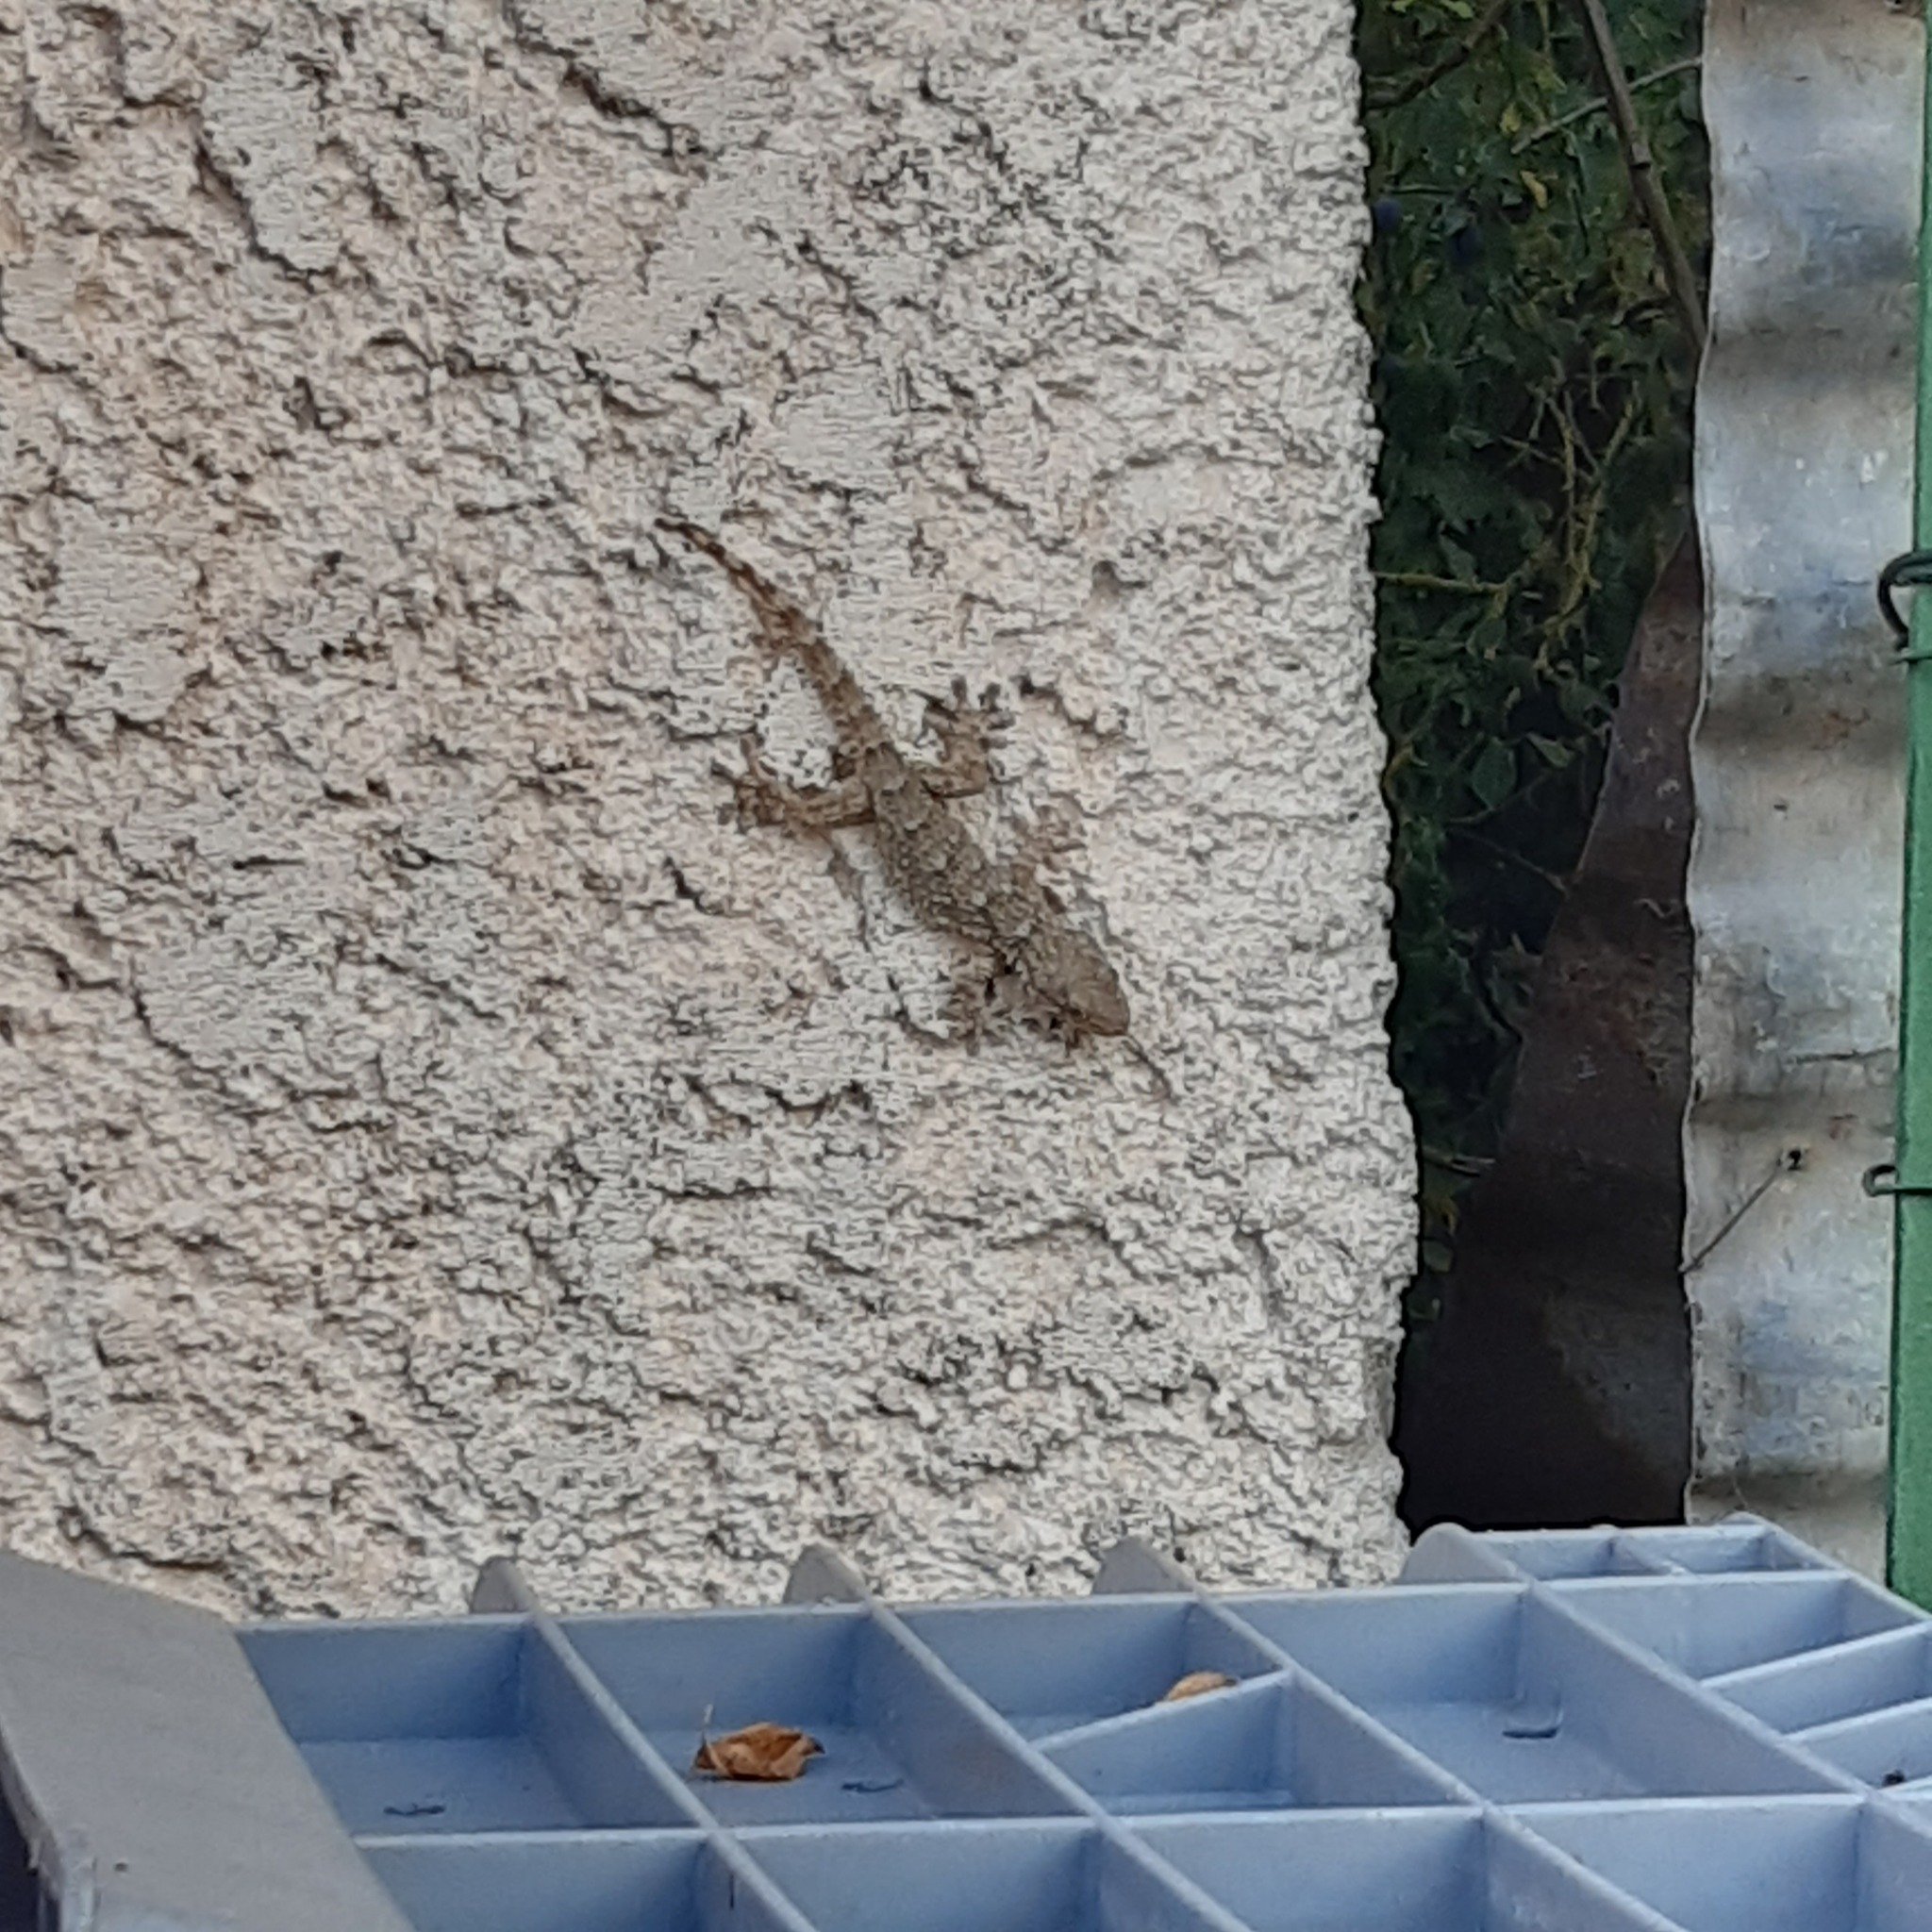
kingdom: Animalia
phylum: Chordata
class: Squamata
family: Phyllodactylidae
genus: Tarentola
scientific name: Tarentola mauritanica
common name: Moorish gecko
